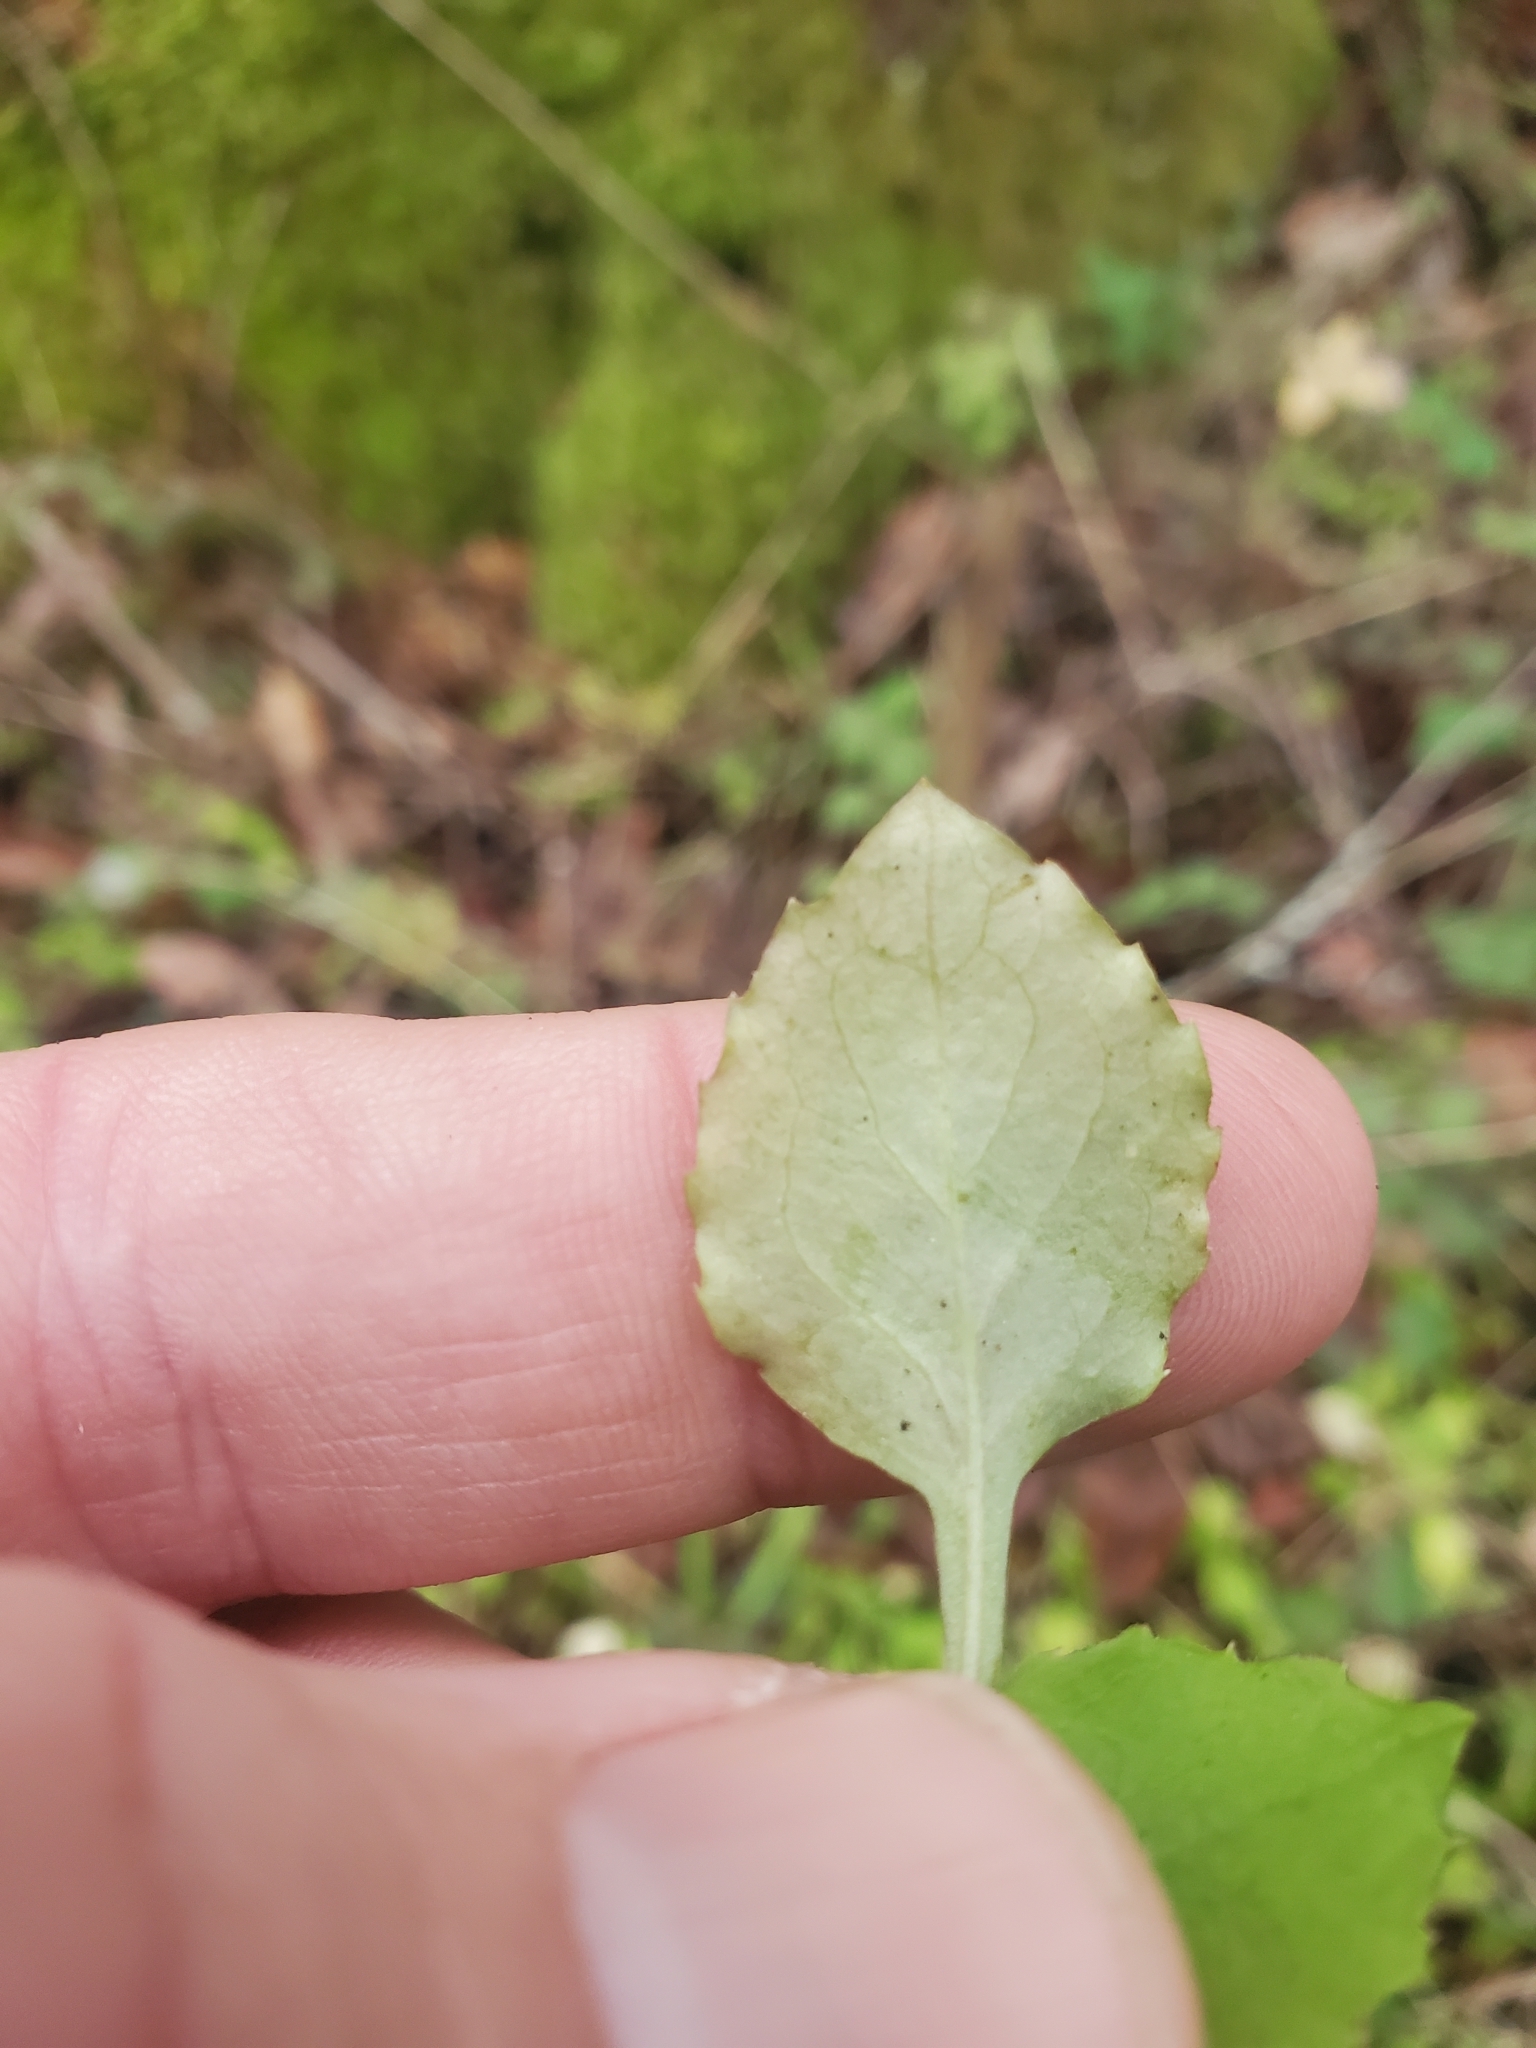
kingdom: Plantae
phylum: Tracheophyta
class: Magnoliopsida
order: Asterales
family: Campanulaceae
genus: Campanula
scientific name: Campanula scouleri
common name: Scouler's harebell
